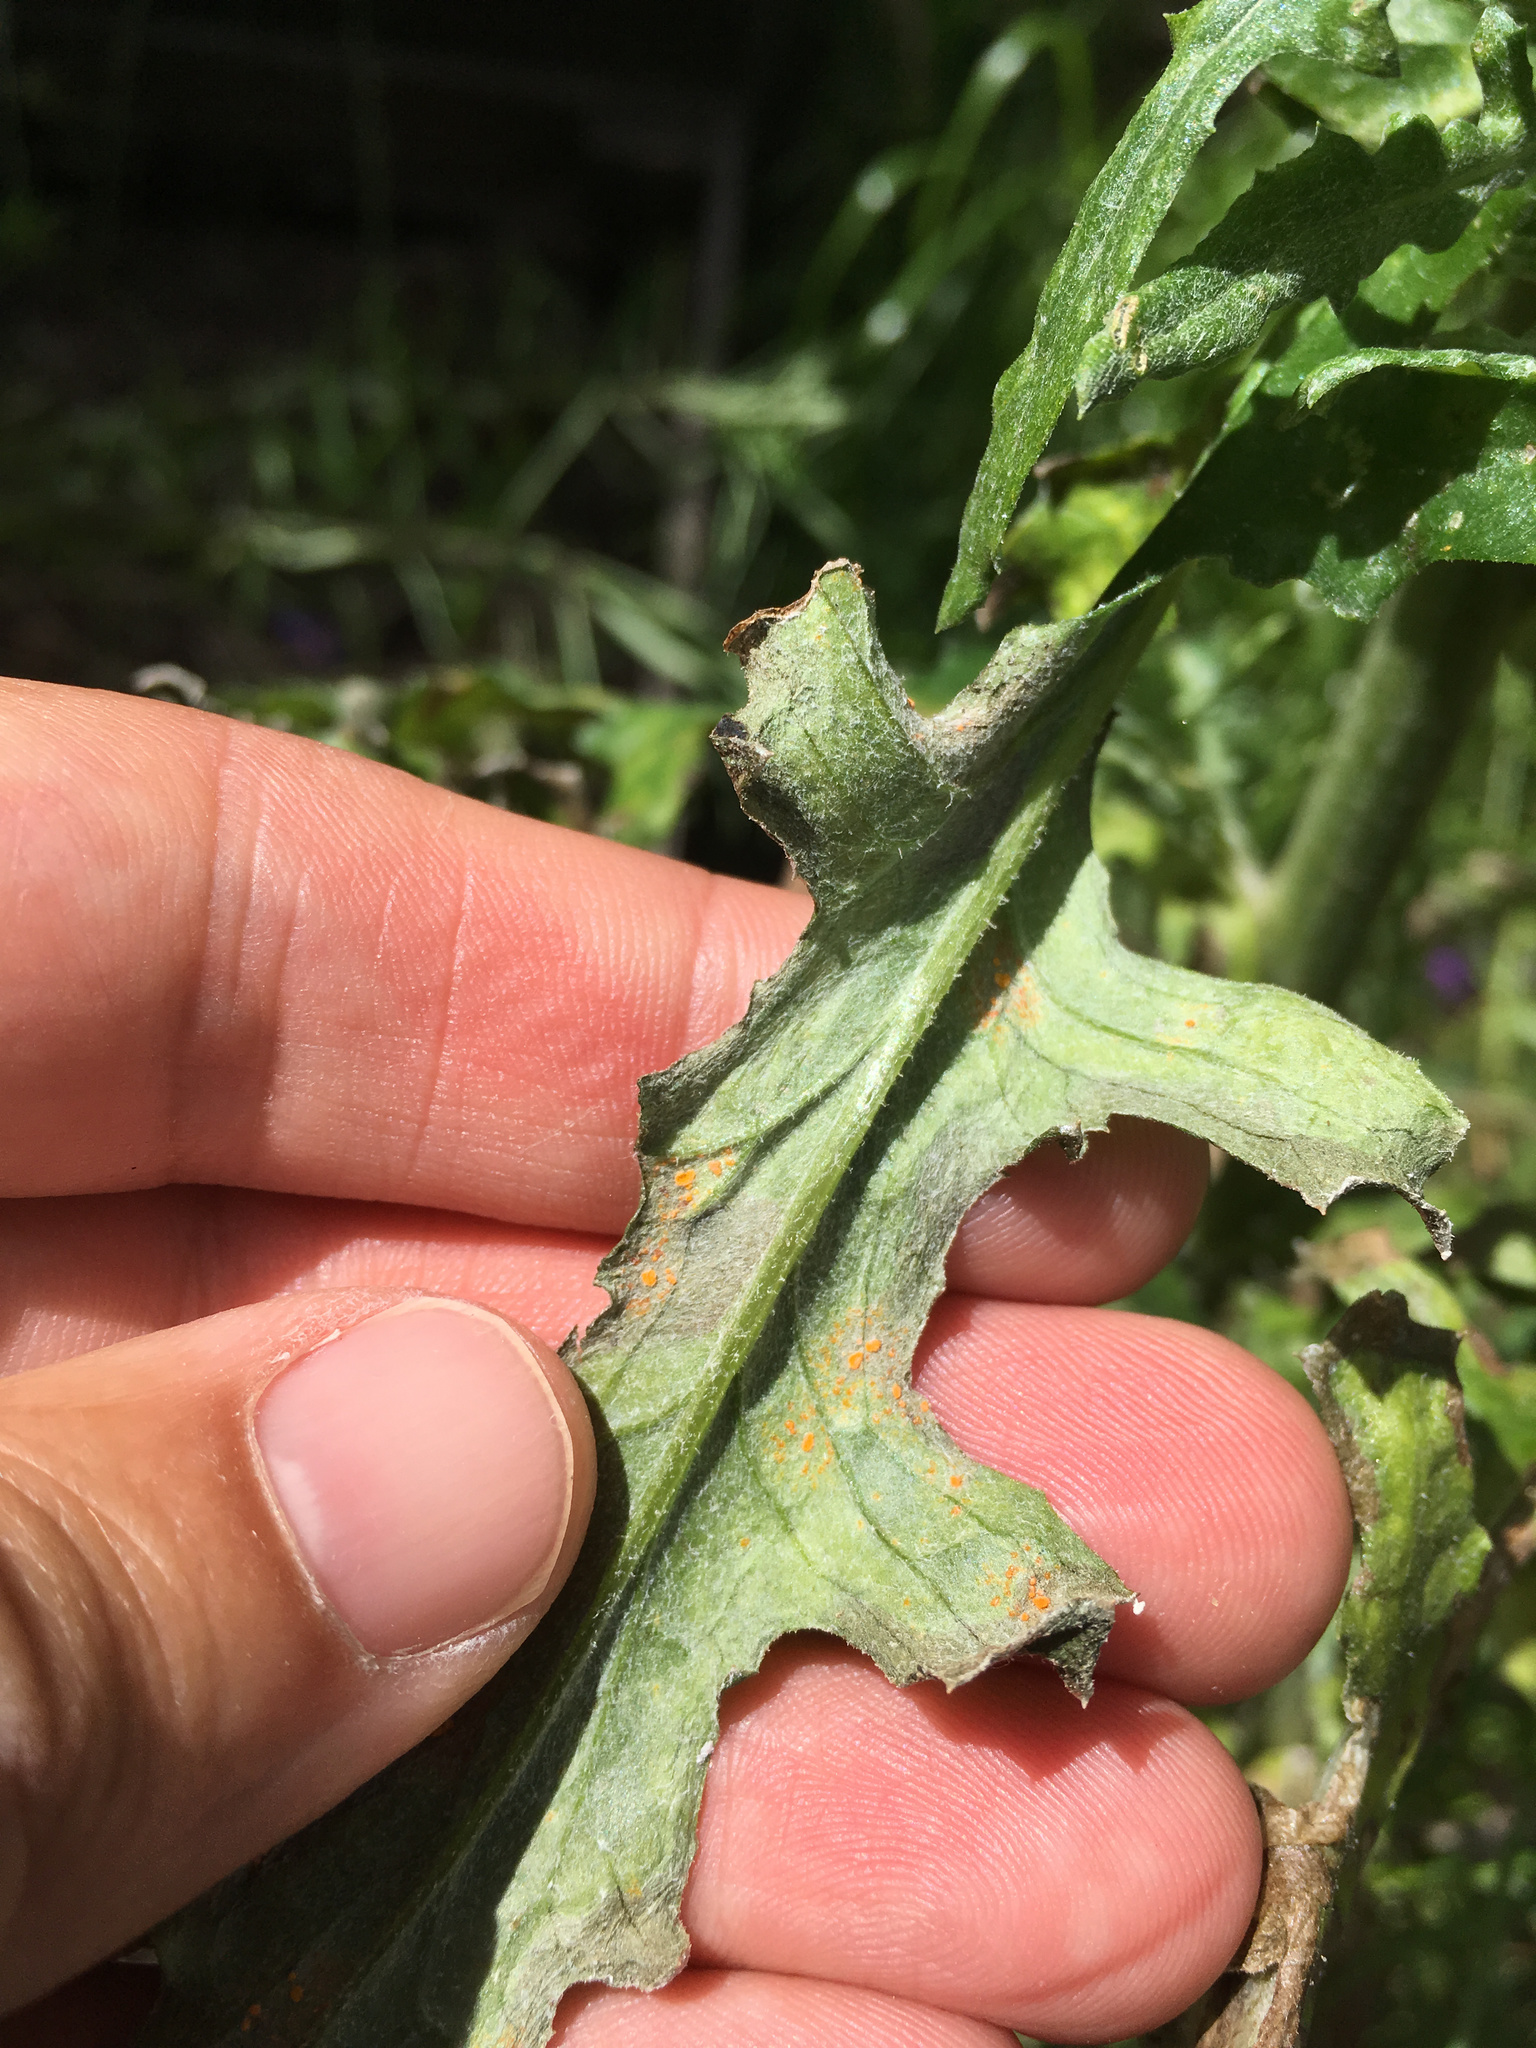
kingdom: Fungi
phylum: Basidiomycota
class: Pucciniomycetes
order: Pucciniales
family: Coleosporiaceae
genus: Coleosporium
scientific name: Coleosporium tussilaginis
